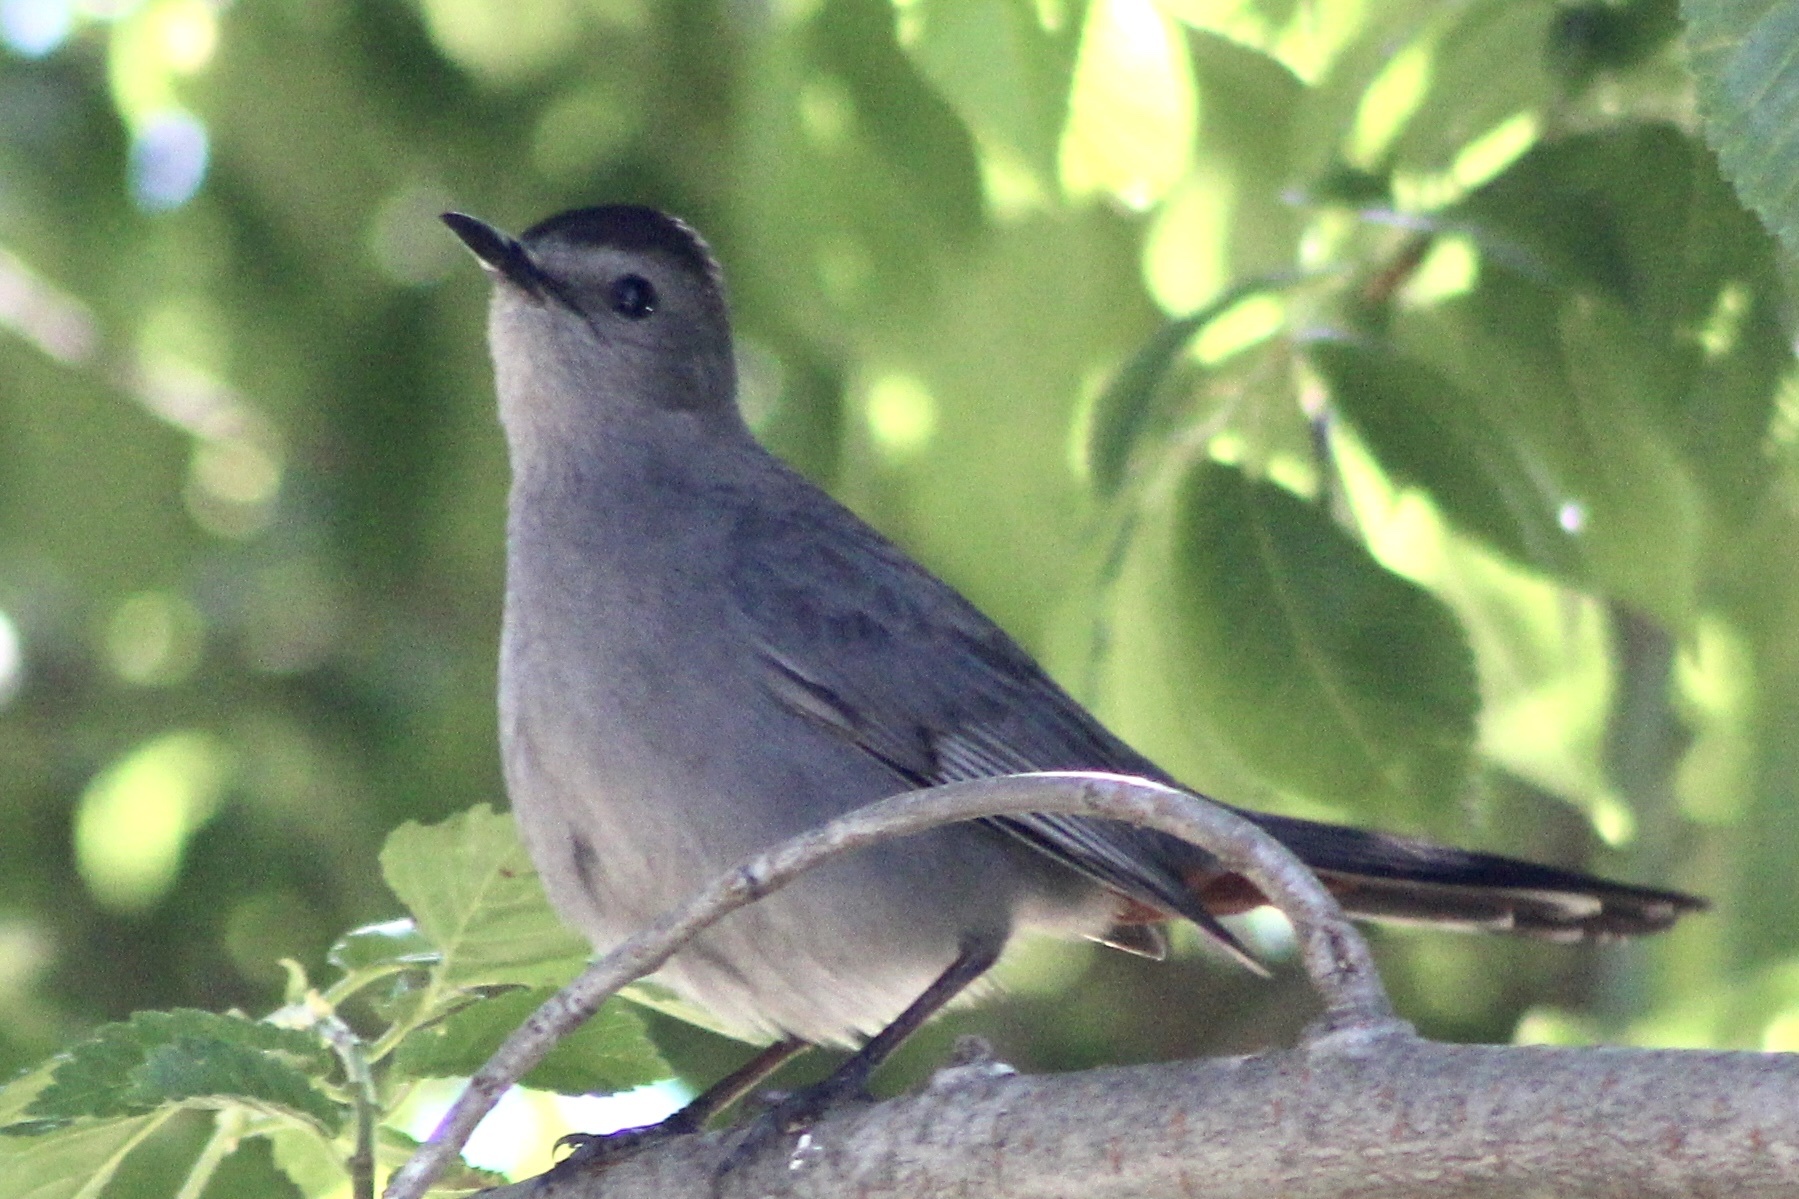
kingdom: Animalia
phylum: Chordata
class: Aves
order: Passeriformes
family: Mimidae
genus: Dumetella
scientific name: Dumetella carolinensis
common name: Gray catbird
